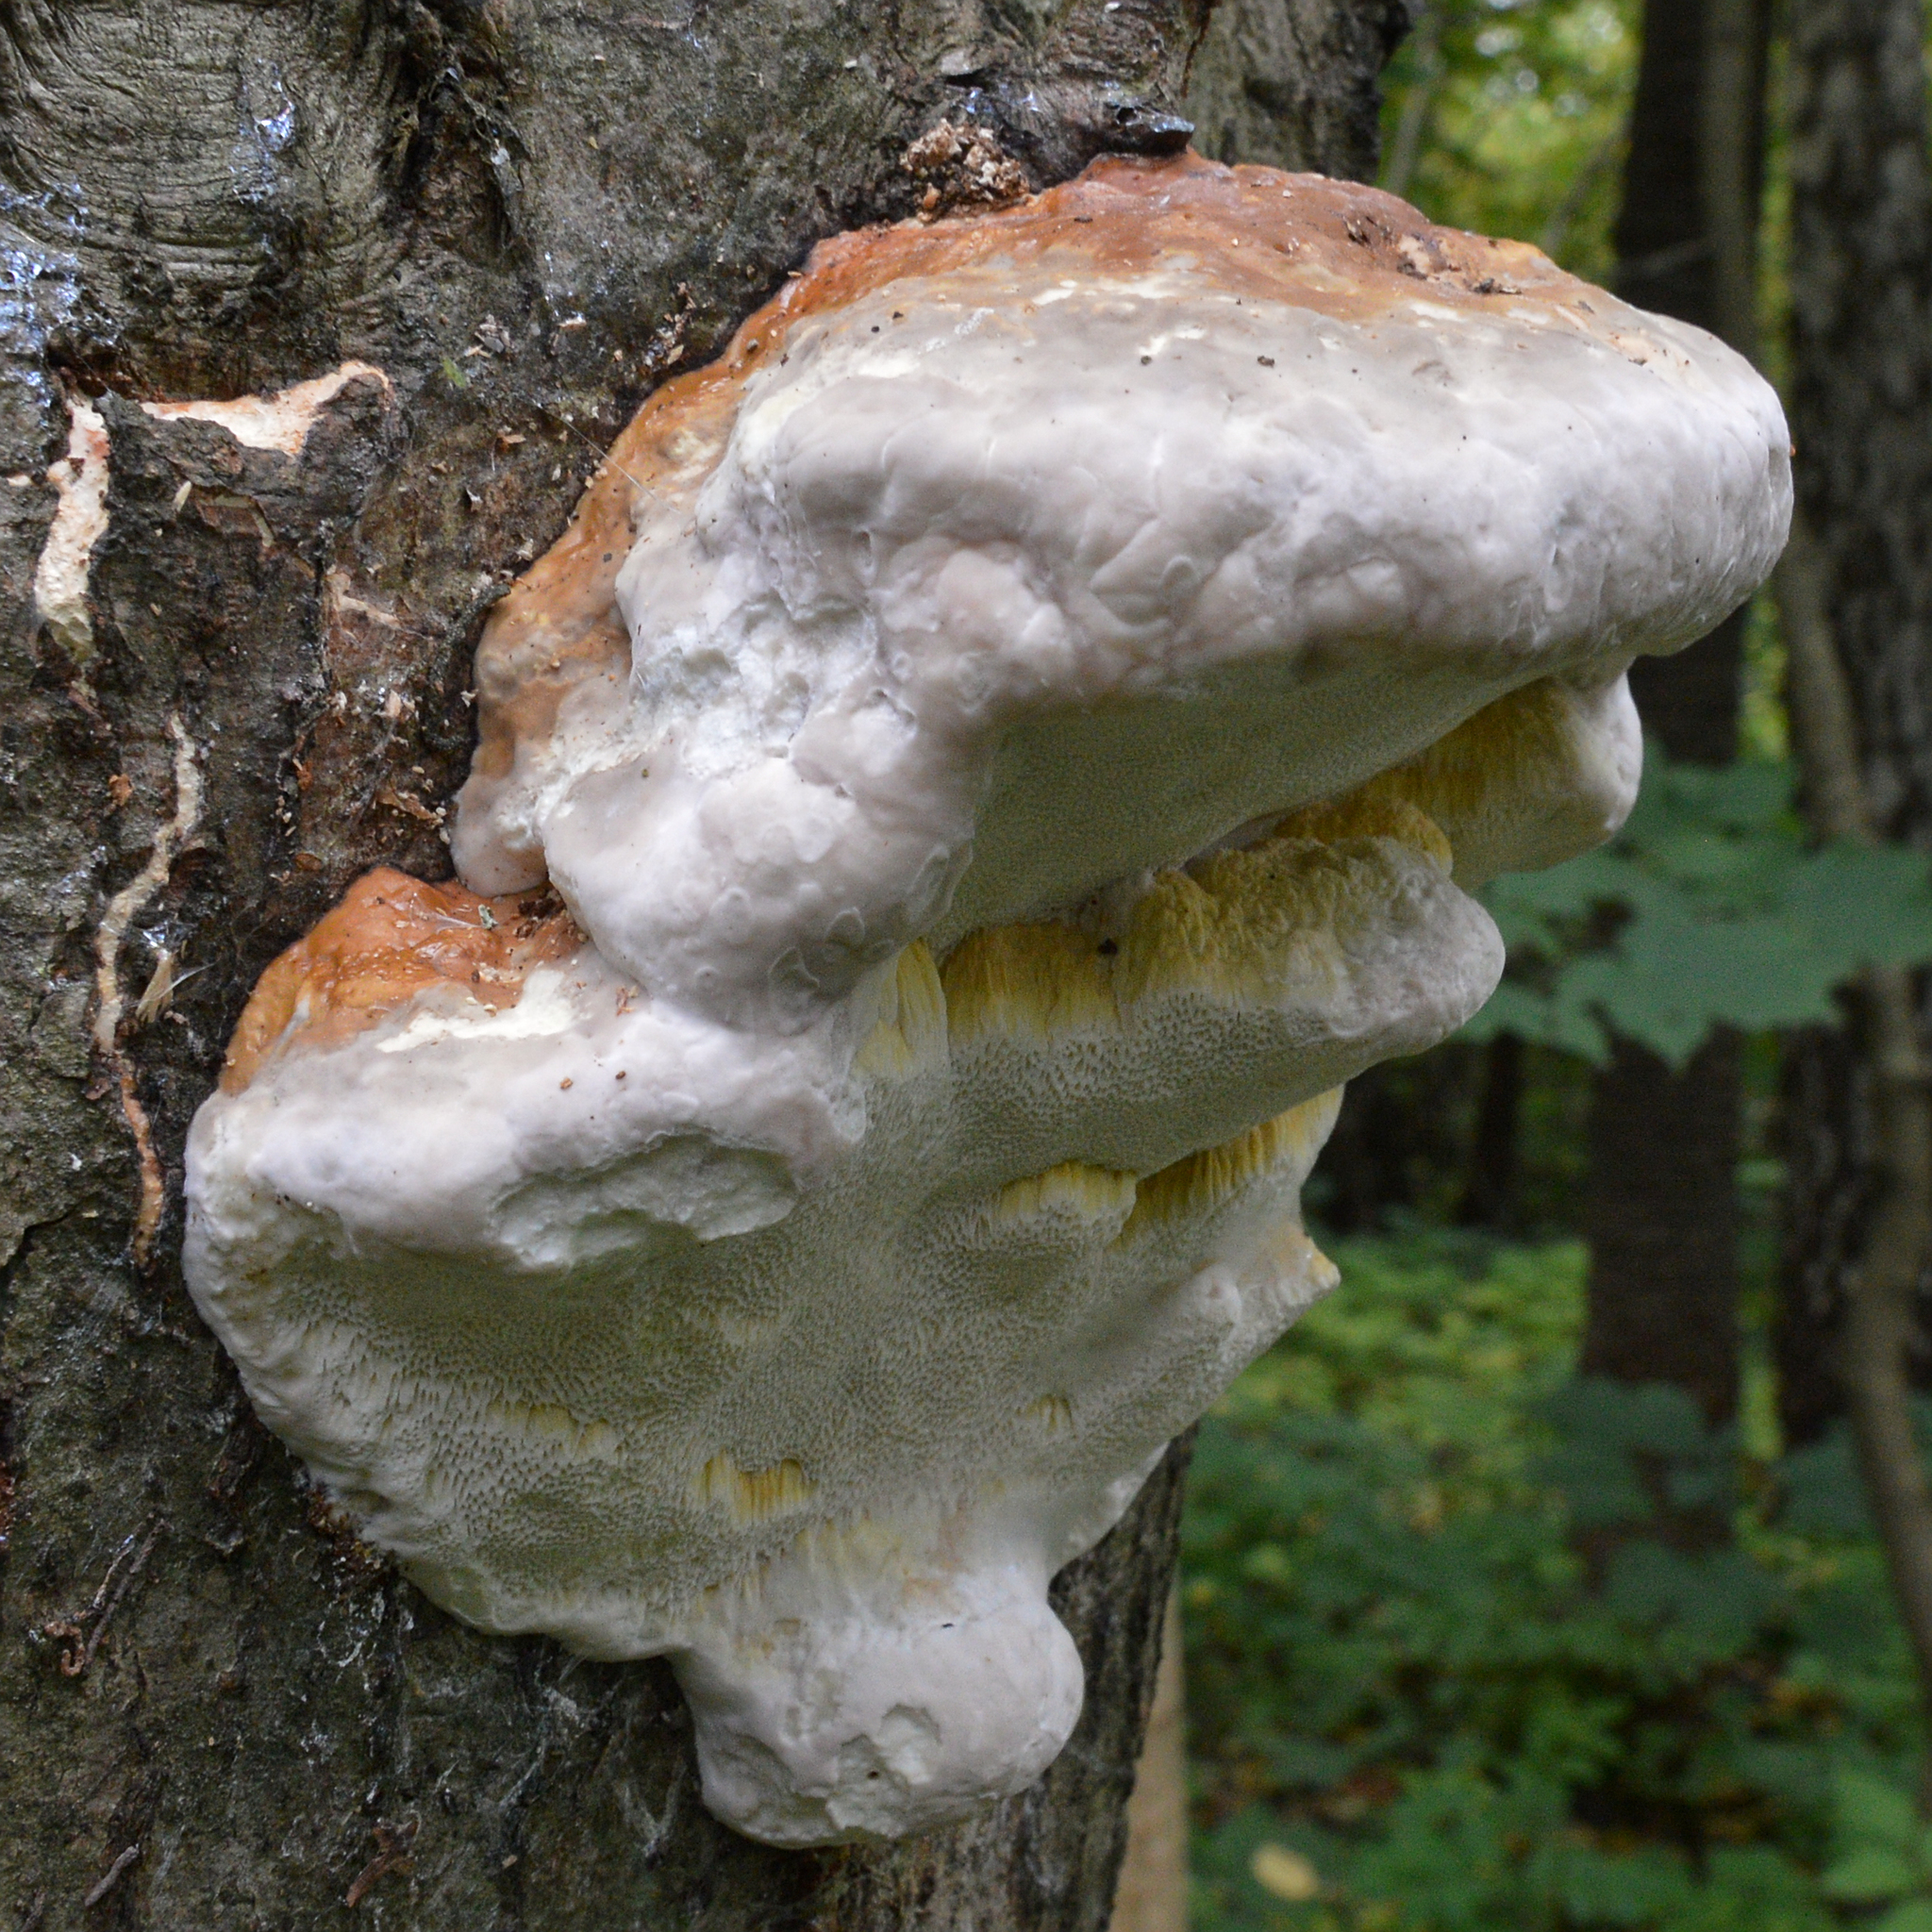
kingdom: Fungi
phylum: Basidiomycota
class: Agaricomycetes
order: Polyporales
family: Fomitopsidaceae
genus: Fomitopsis
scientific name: Fomitopsis pinicola
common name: Red-belted bracket
